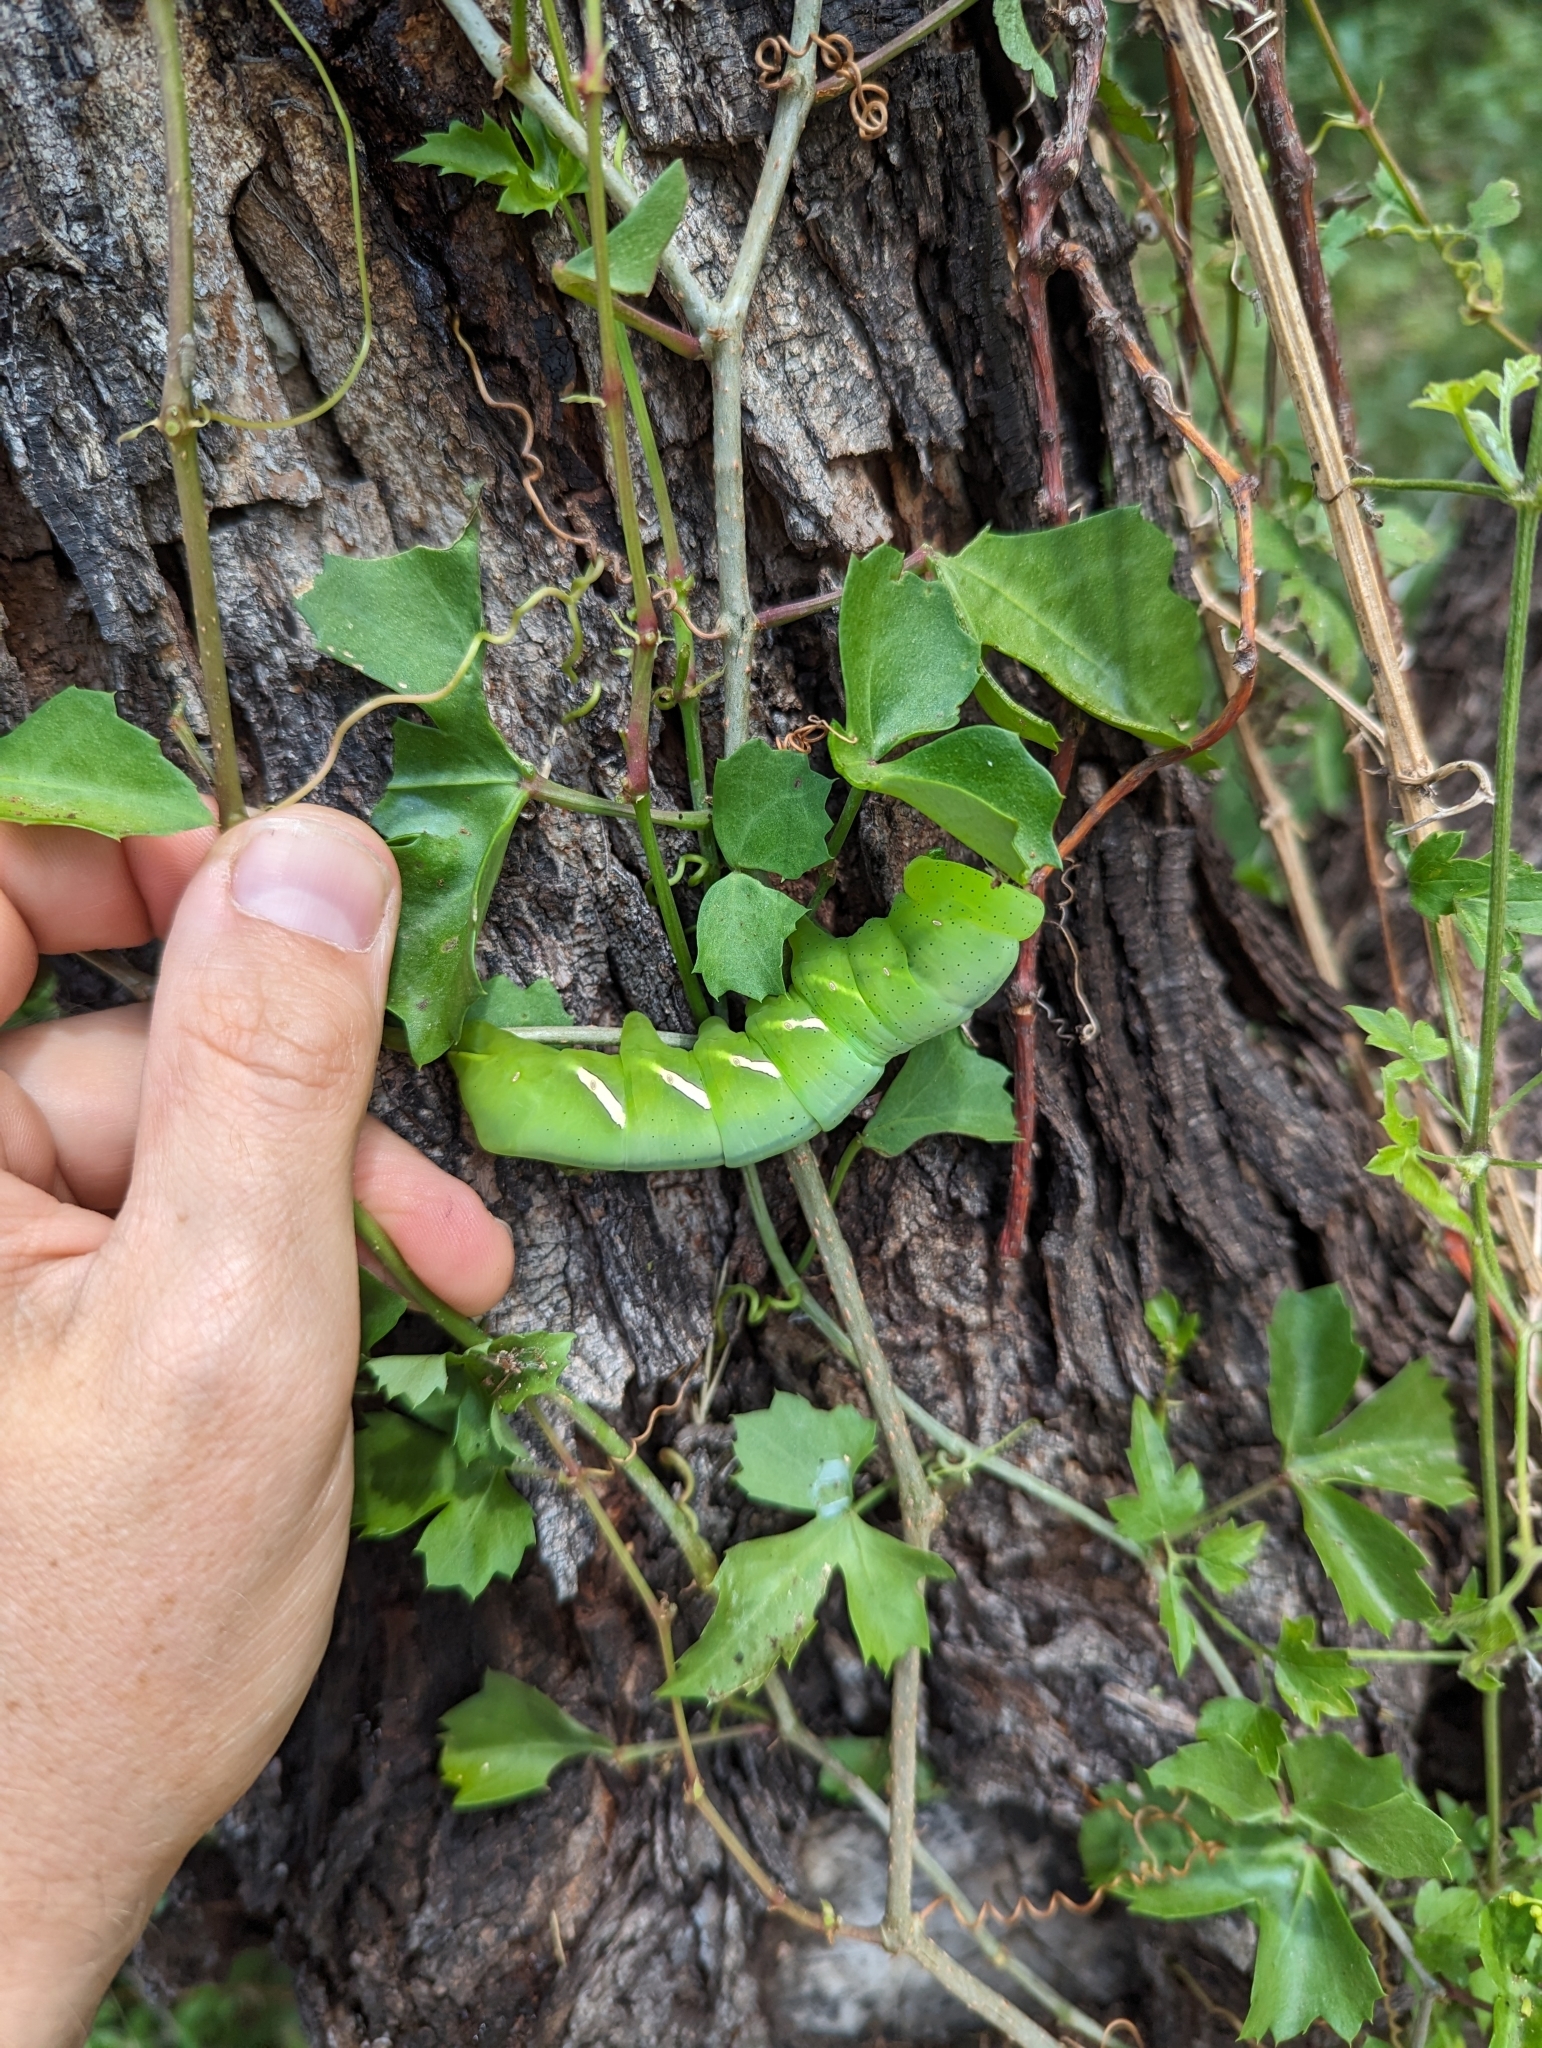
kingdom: Animalia
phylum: Arthropoda
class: Insecta
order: Lepidoptera
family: Sphingidae
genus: Eumorpha
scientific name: Eumorpha vitis
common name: Vine sphinx
